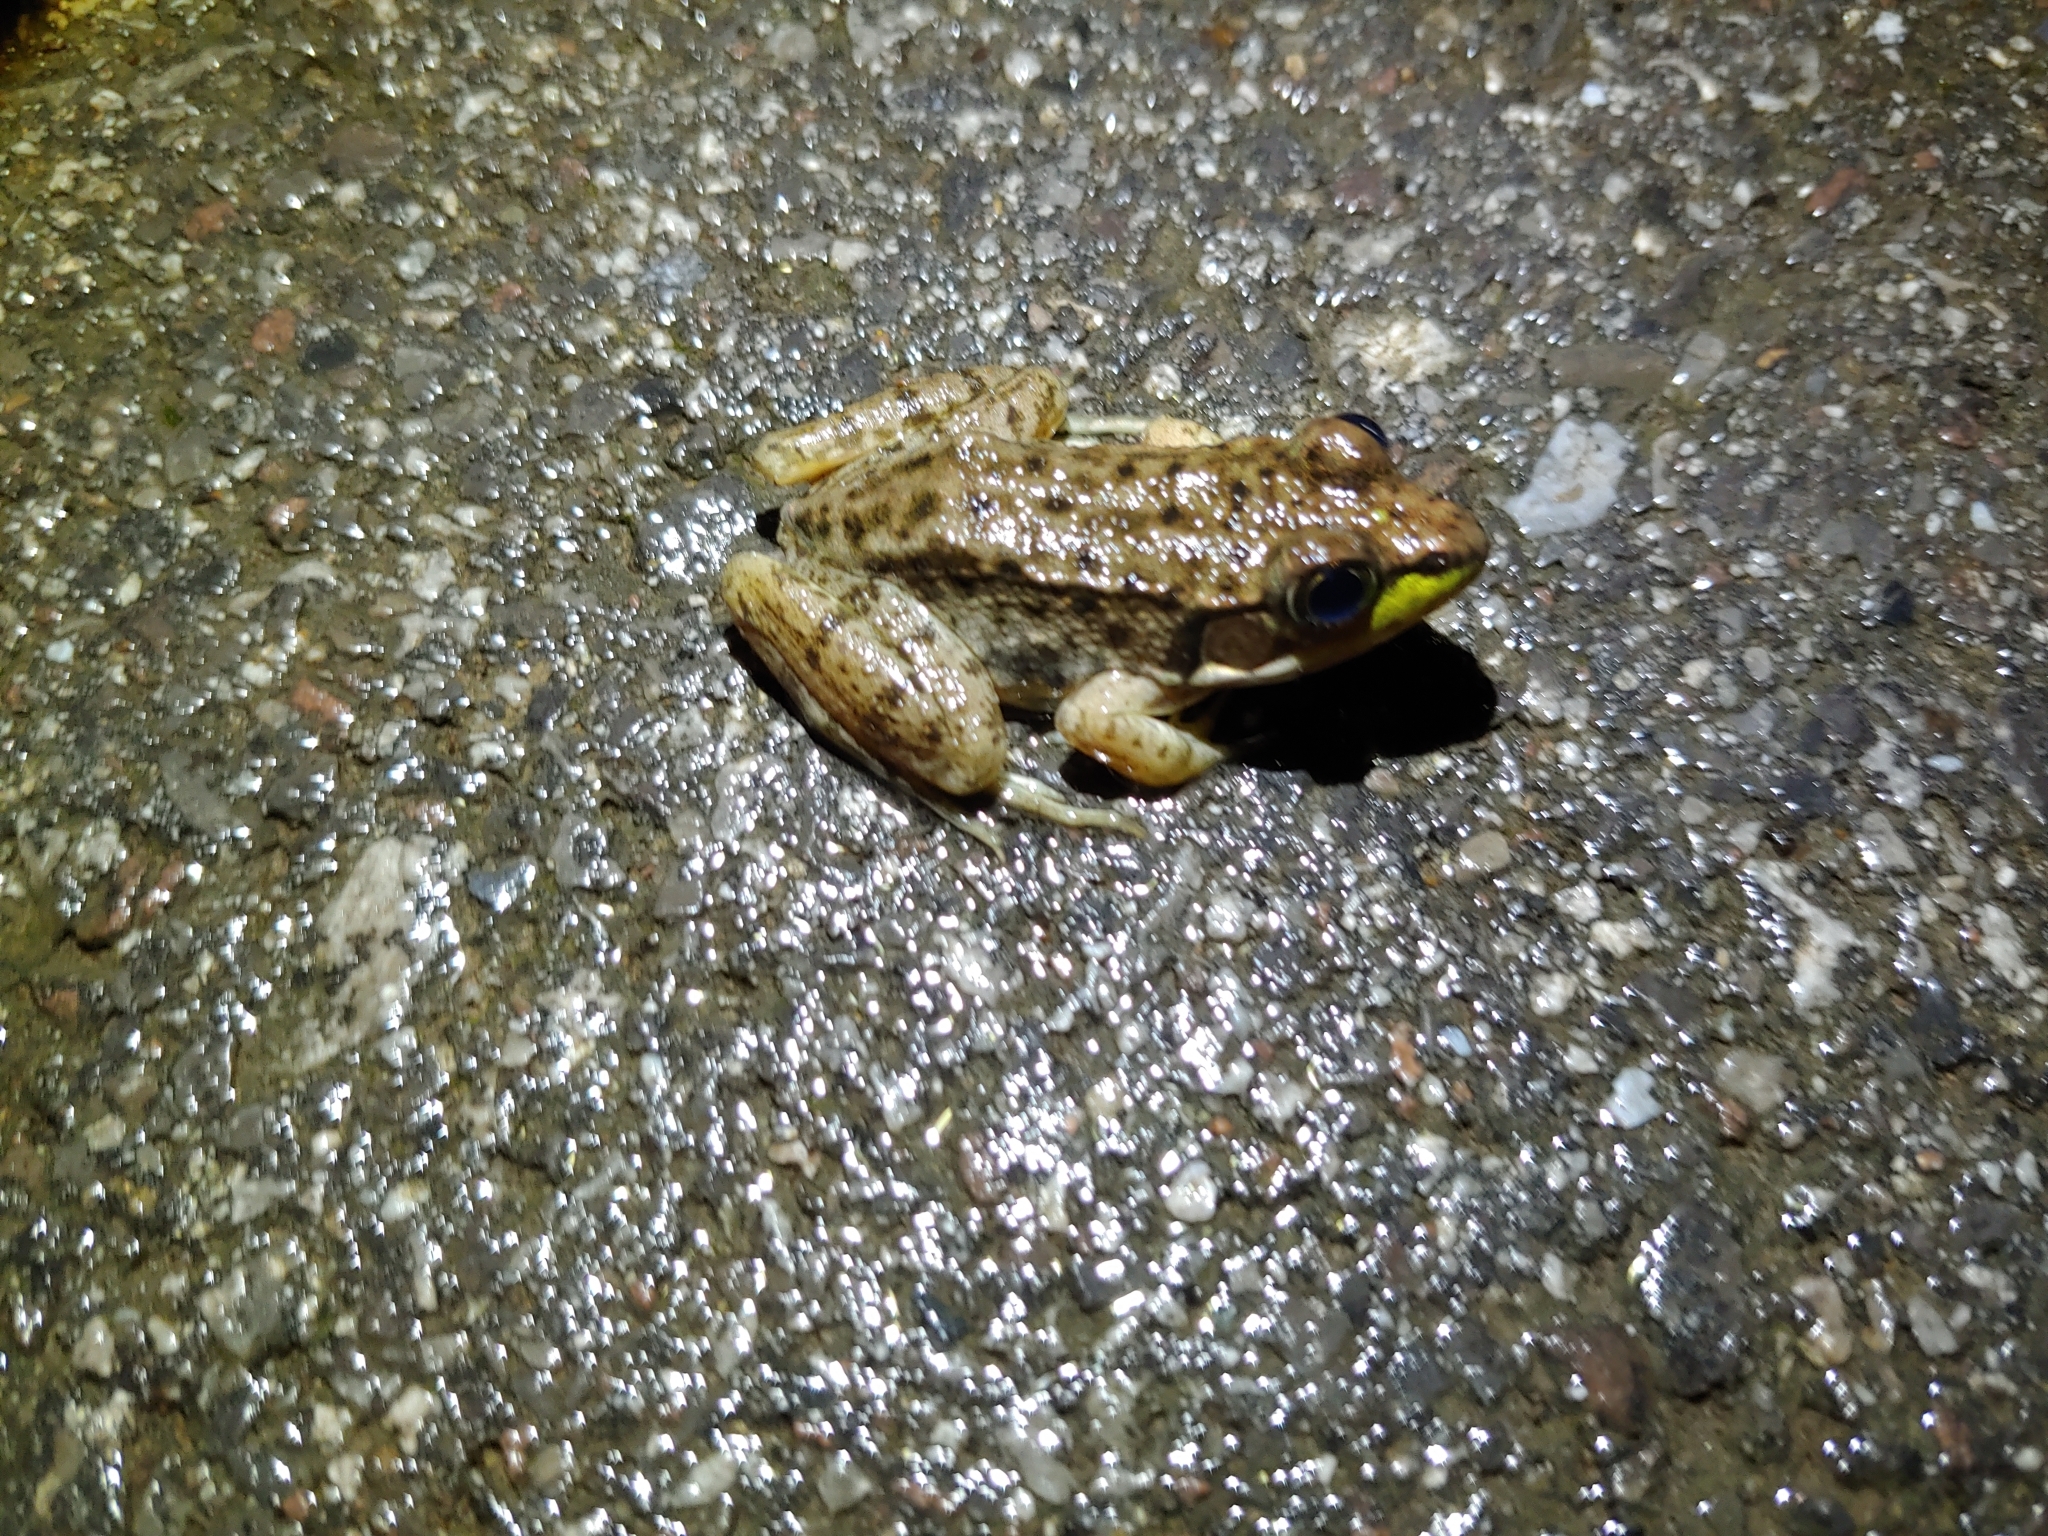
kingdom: Animalia
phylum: Chordata
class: Amphibia
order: Anura
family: Ranidae
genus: Lithobates
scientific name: Lithobates clamitans
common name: Green frog
